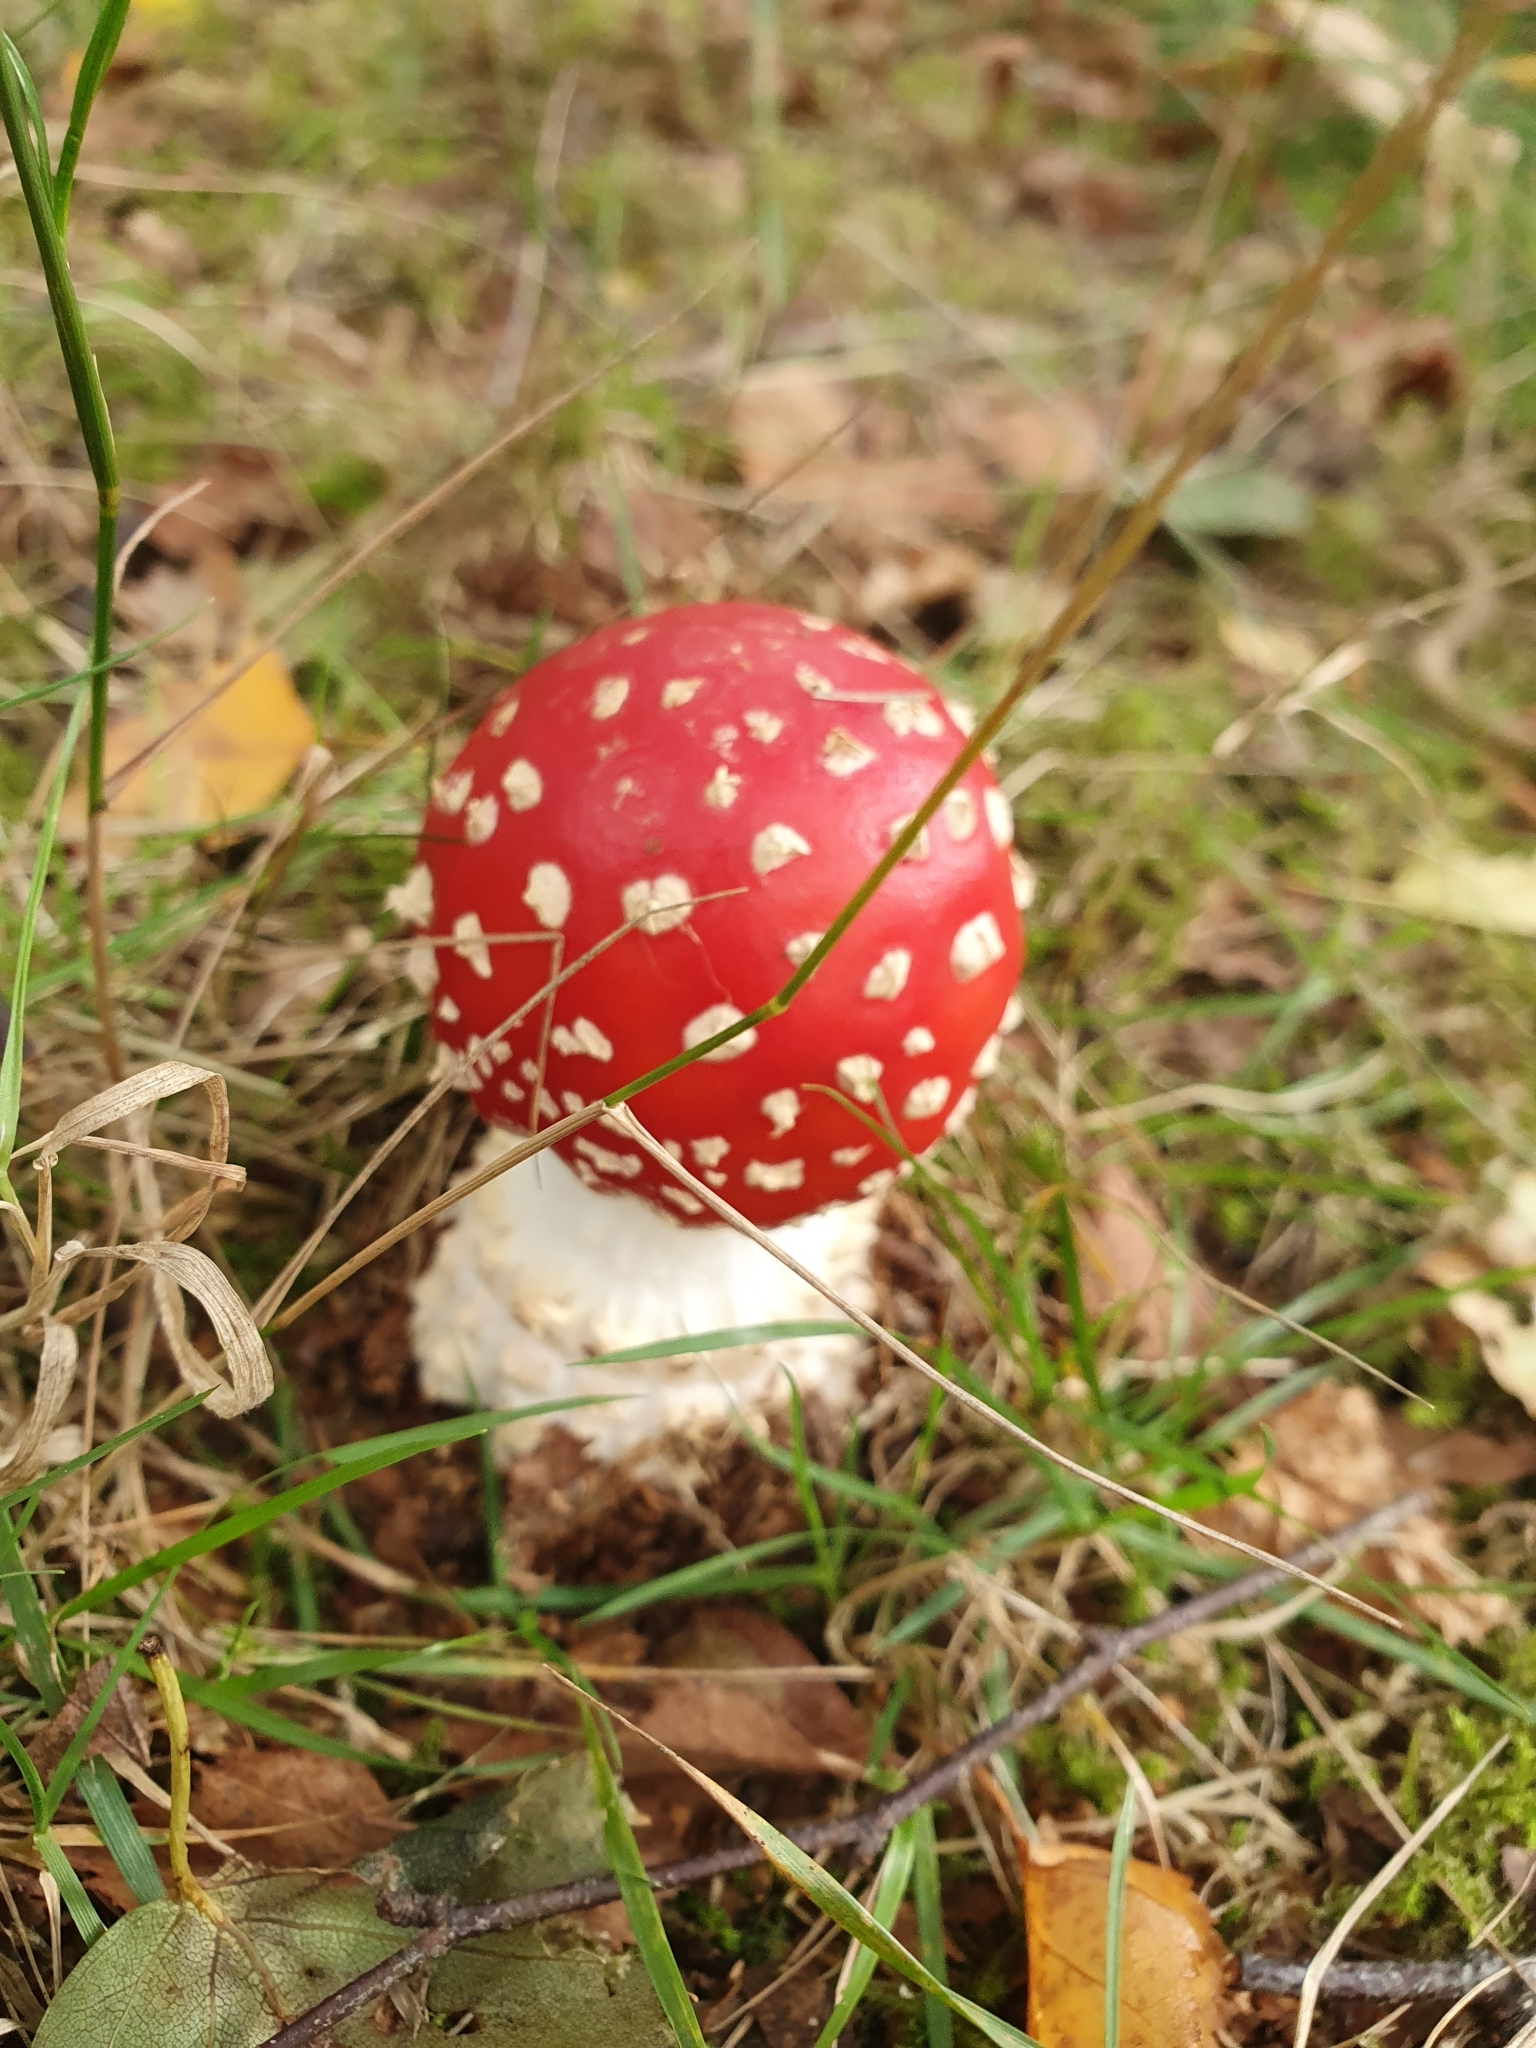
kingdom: Fungi
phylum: Basidiomycota
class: Agaricomycetes
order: Agaricales
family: Amanitaceae
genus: Amanita
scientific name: Amanita muscaria
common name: Fly agaric
